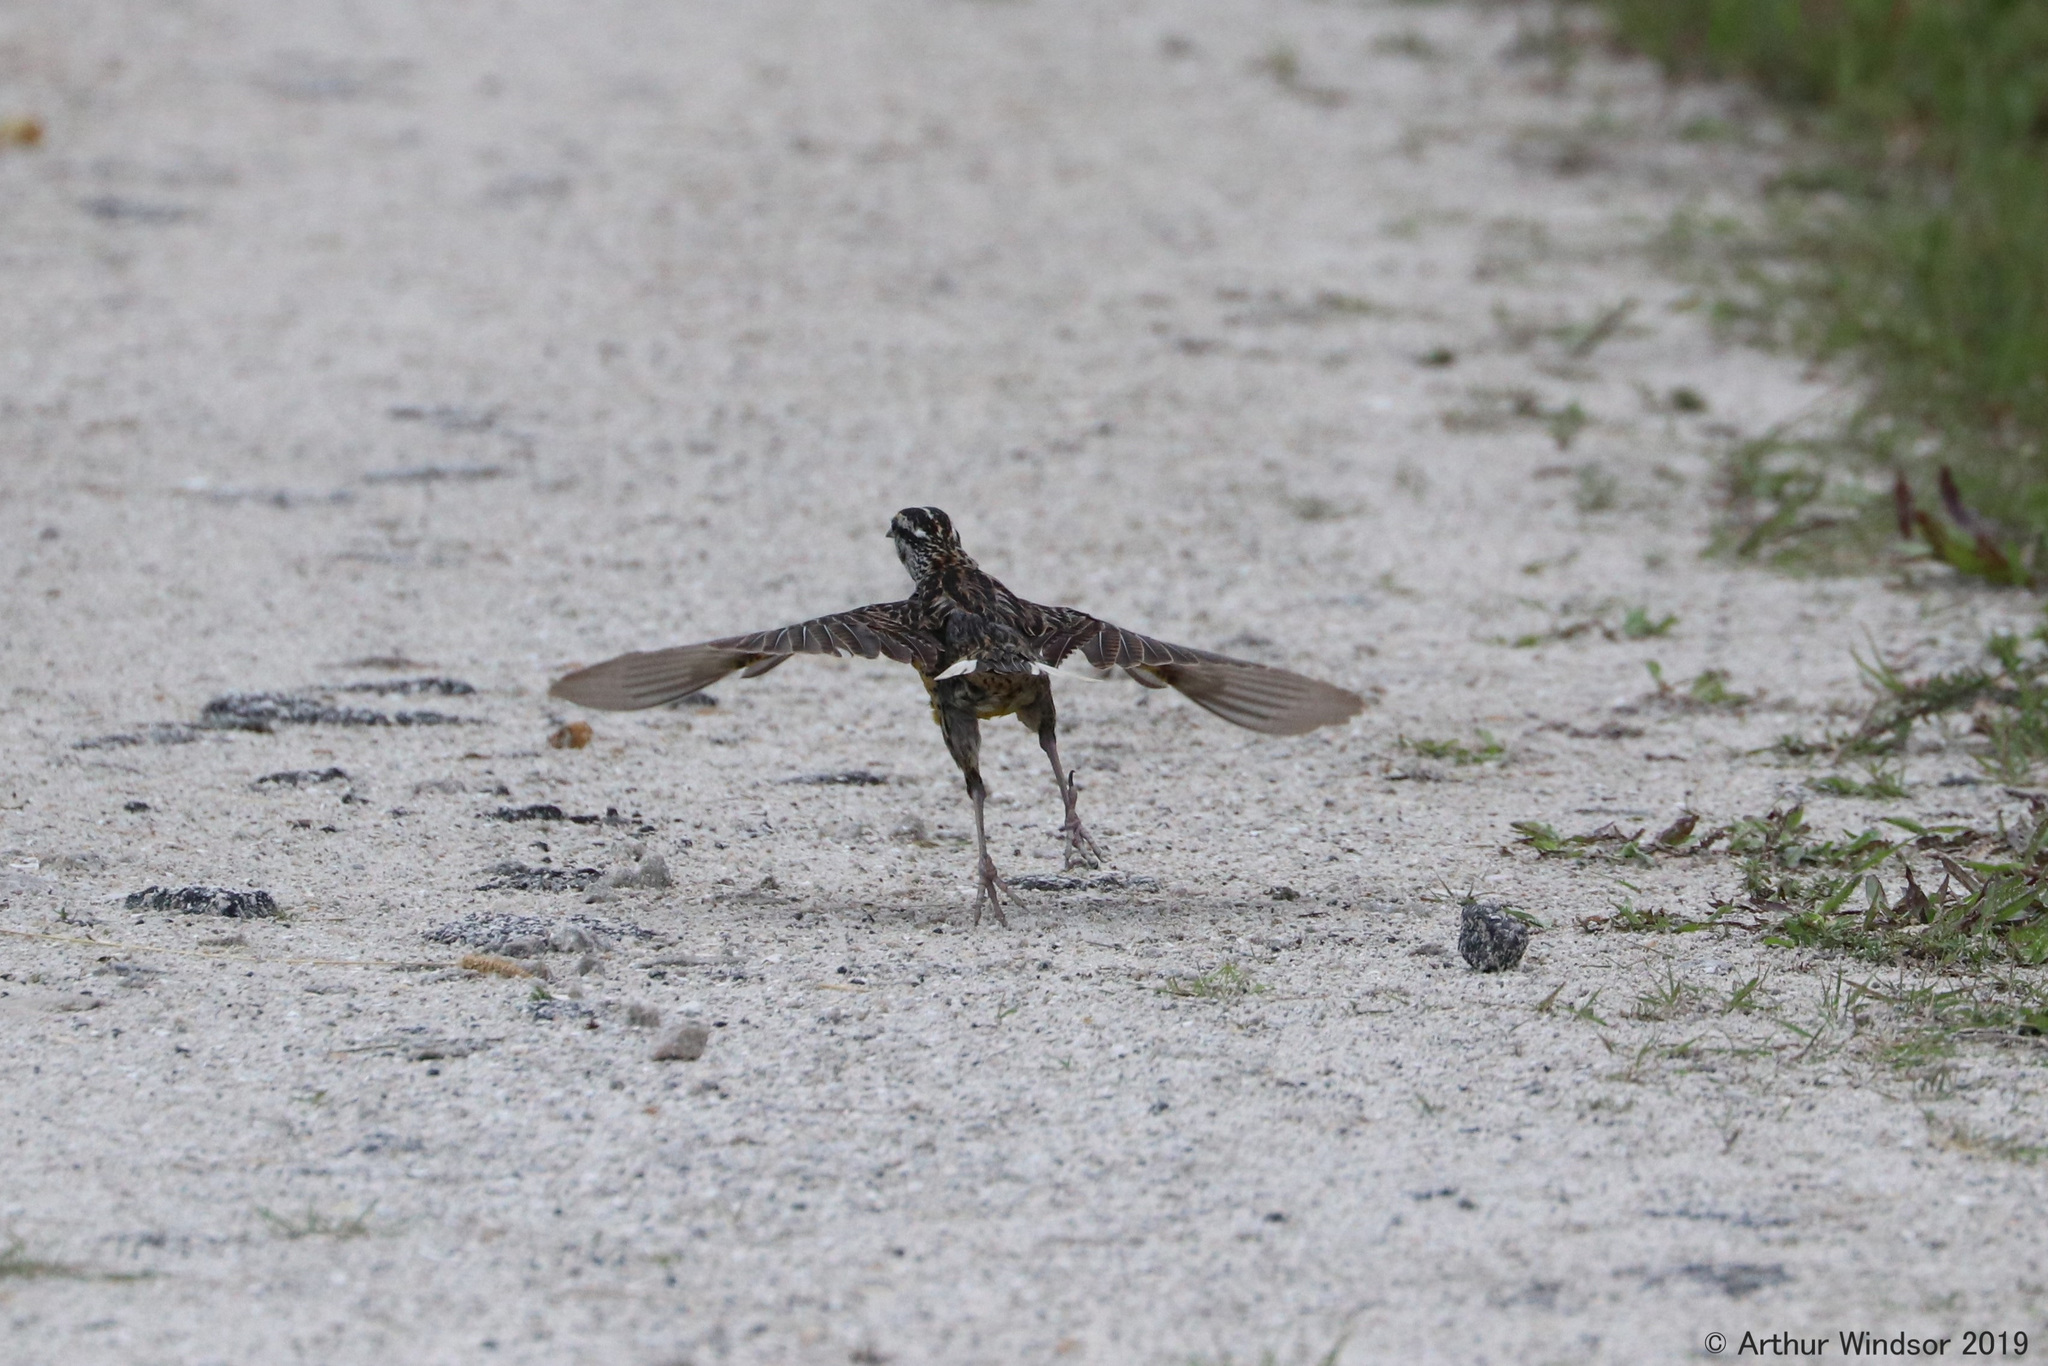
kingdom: Animalia
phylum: Chordata
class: Aves
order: Passeriformes
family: Icteridae
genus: Sturnella
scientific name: Sturnella magna
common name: Eastern meadowlark
